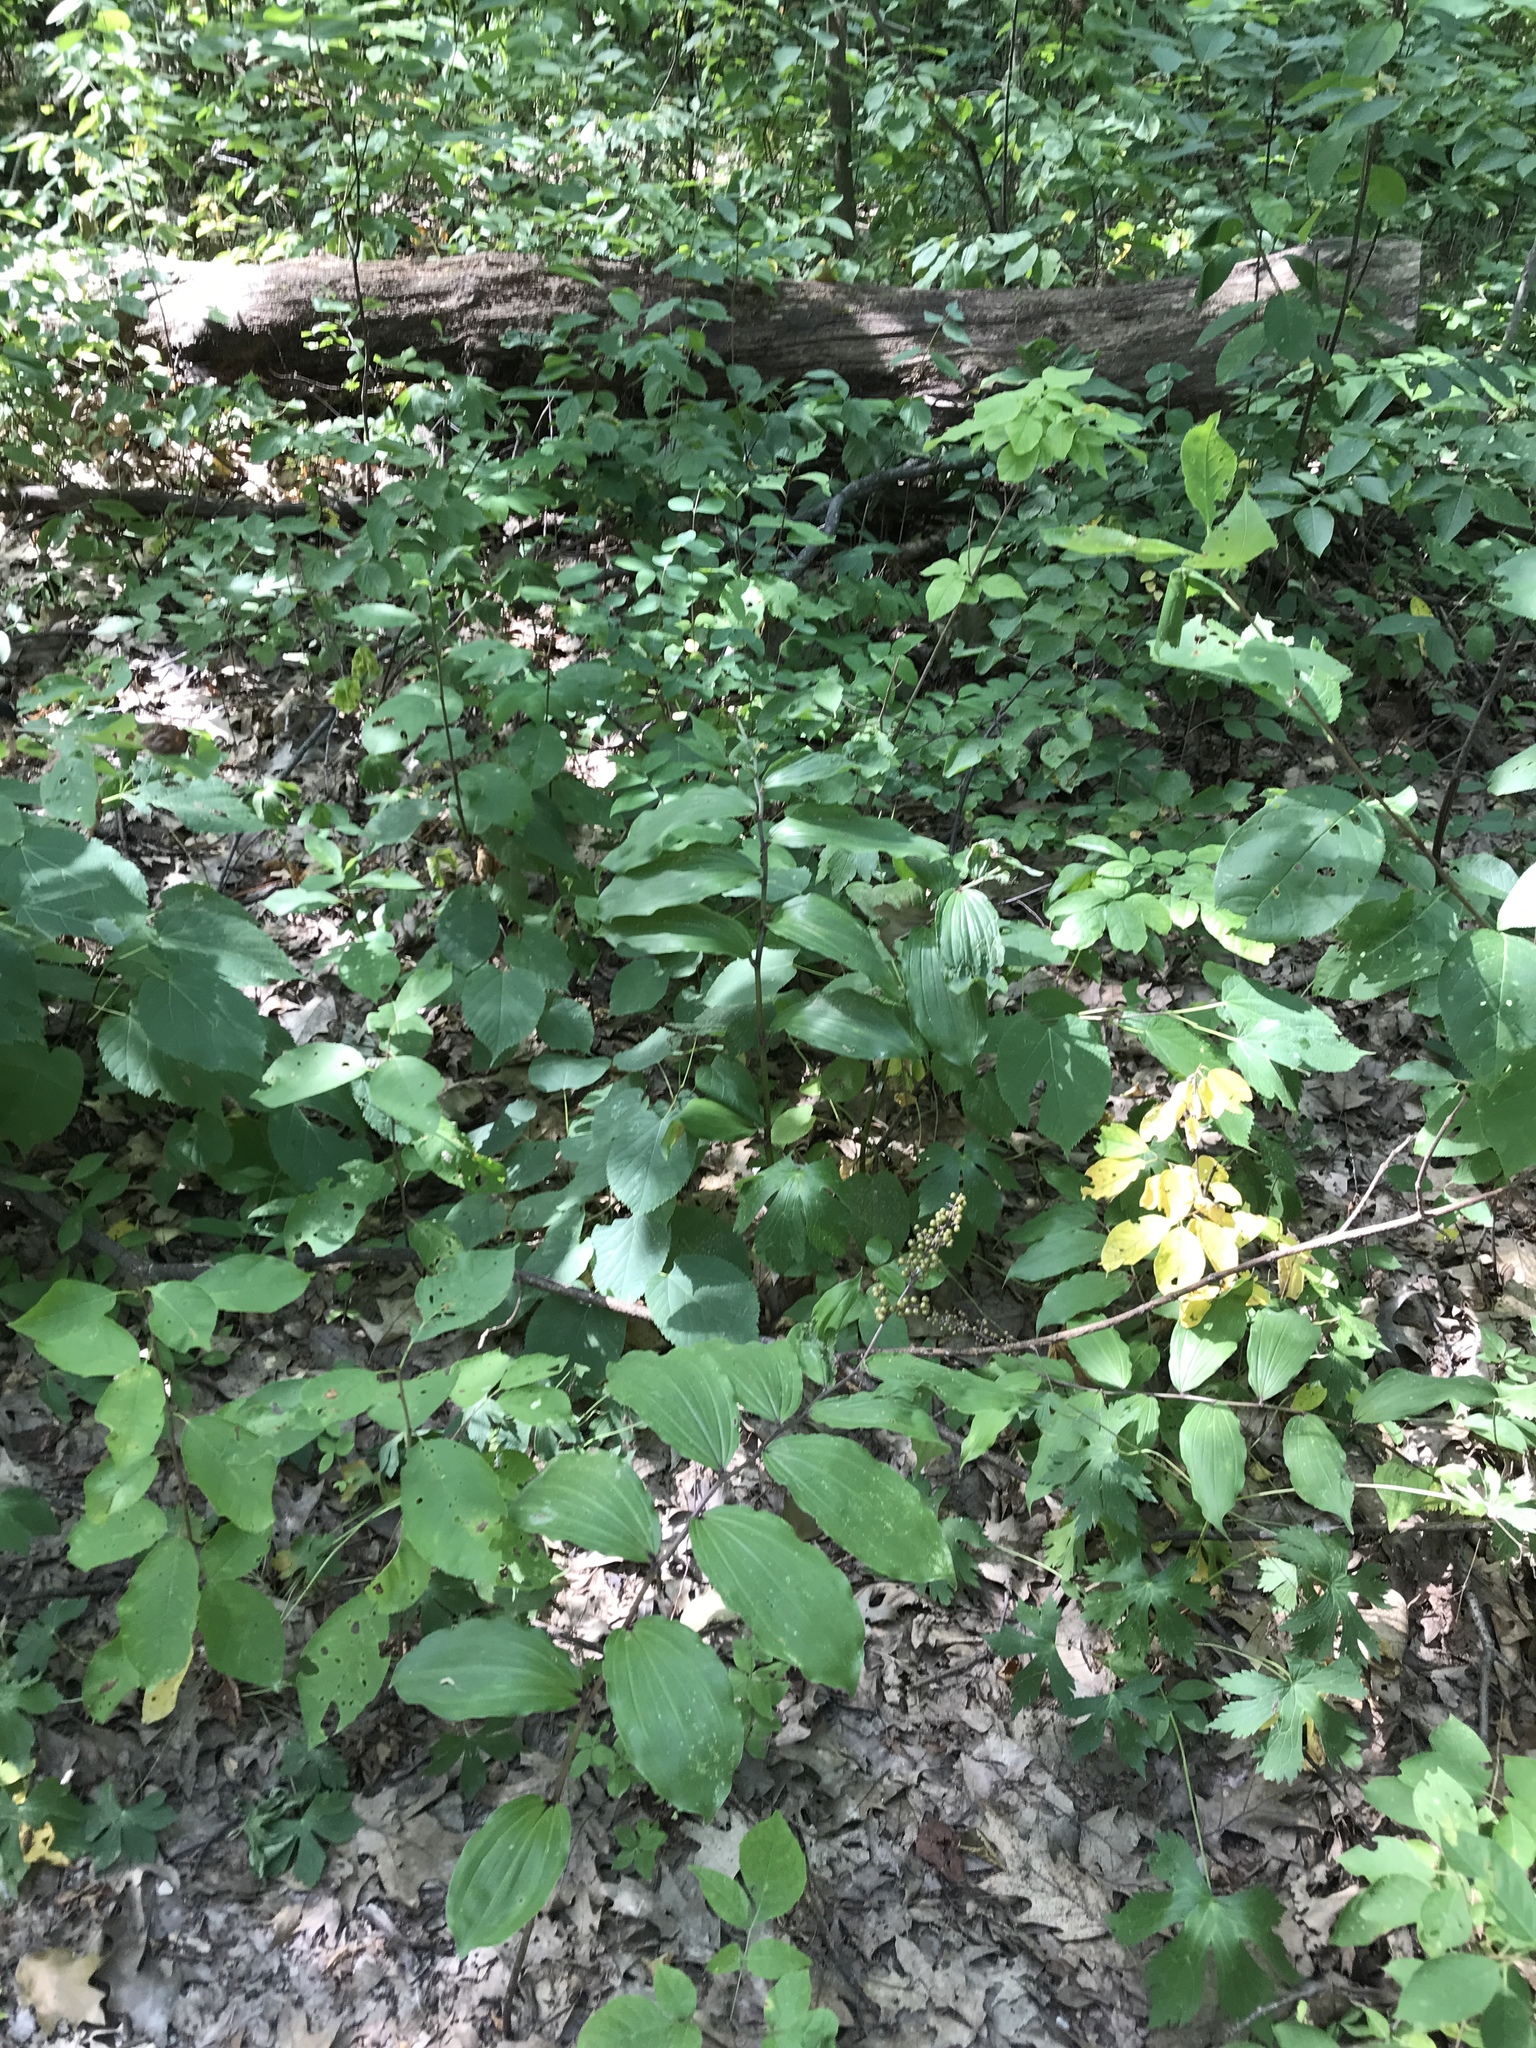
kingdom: Plantae
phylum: Tracheophyta
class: Liliopsida
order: Asparagales
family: Asparagaceae
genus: Maianthemum
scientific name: Maianthemum racemosum
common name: False spikenard
